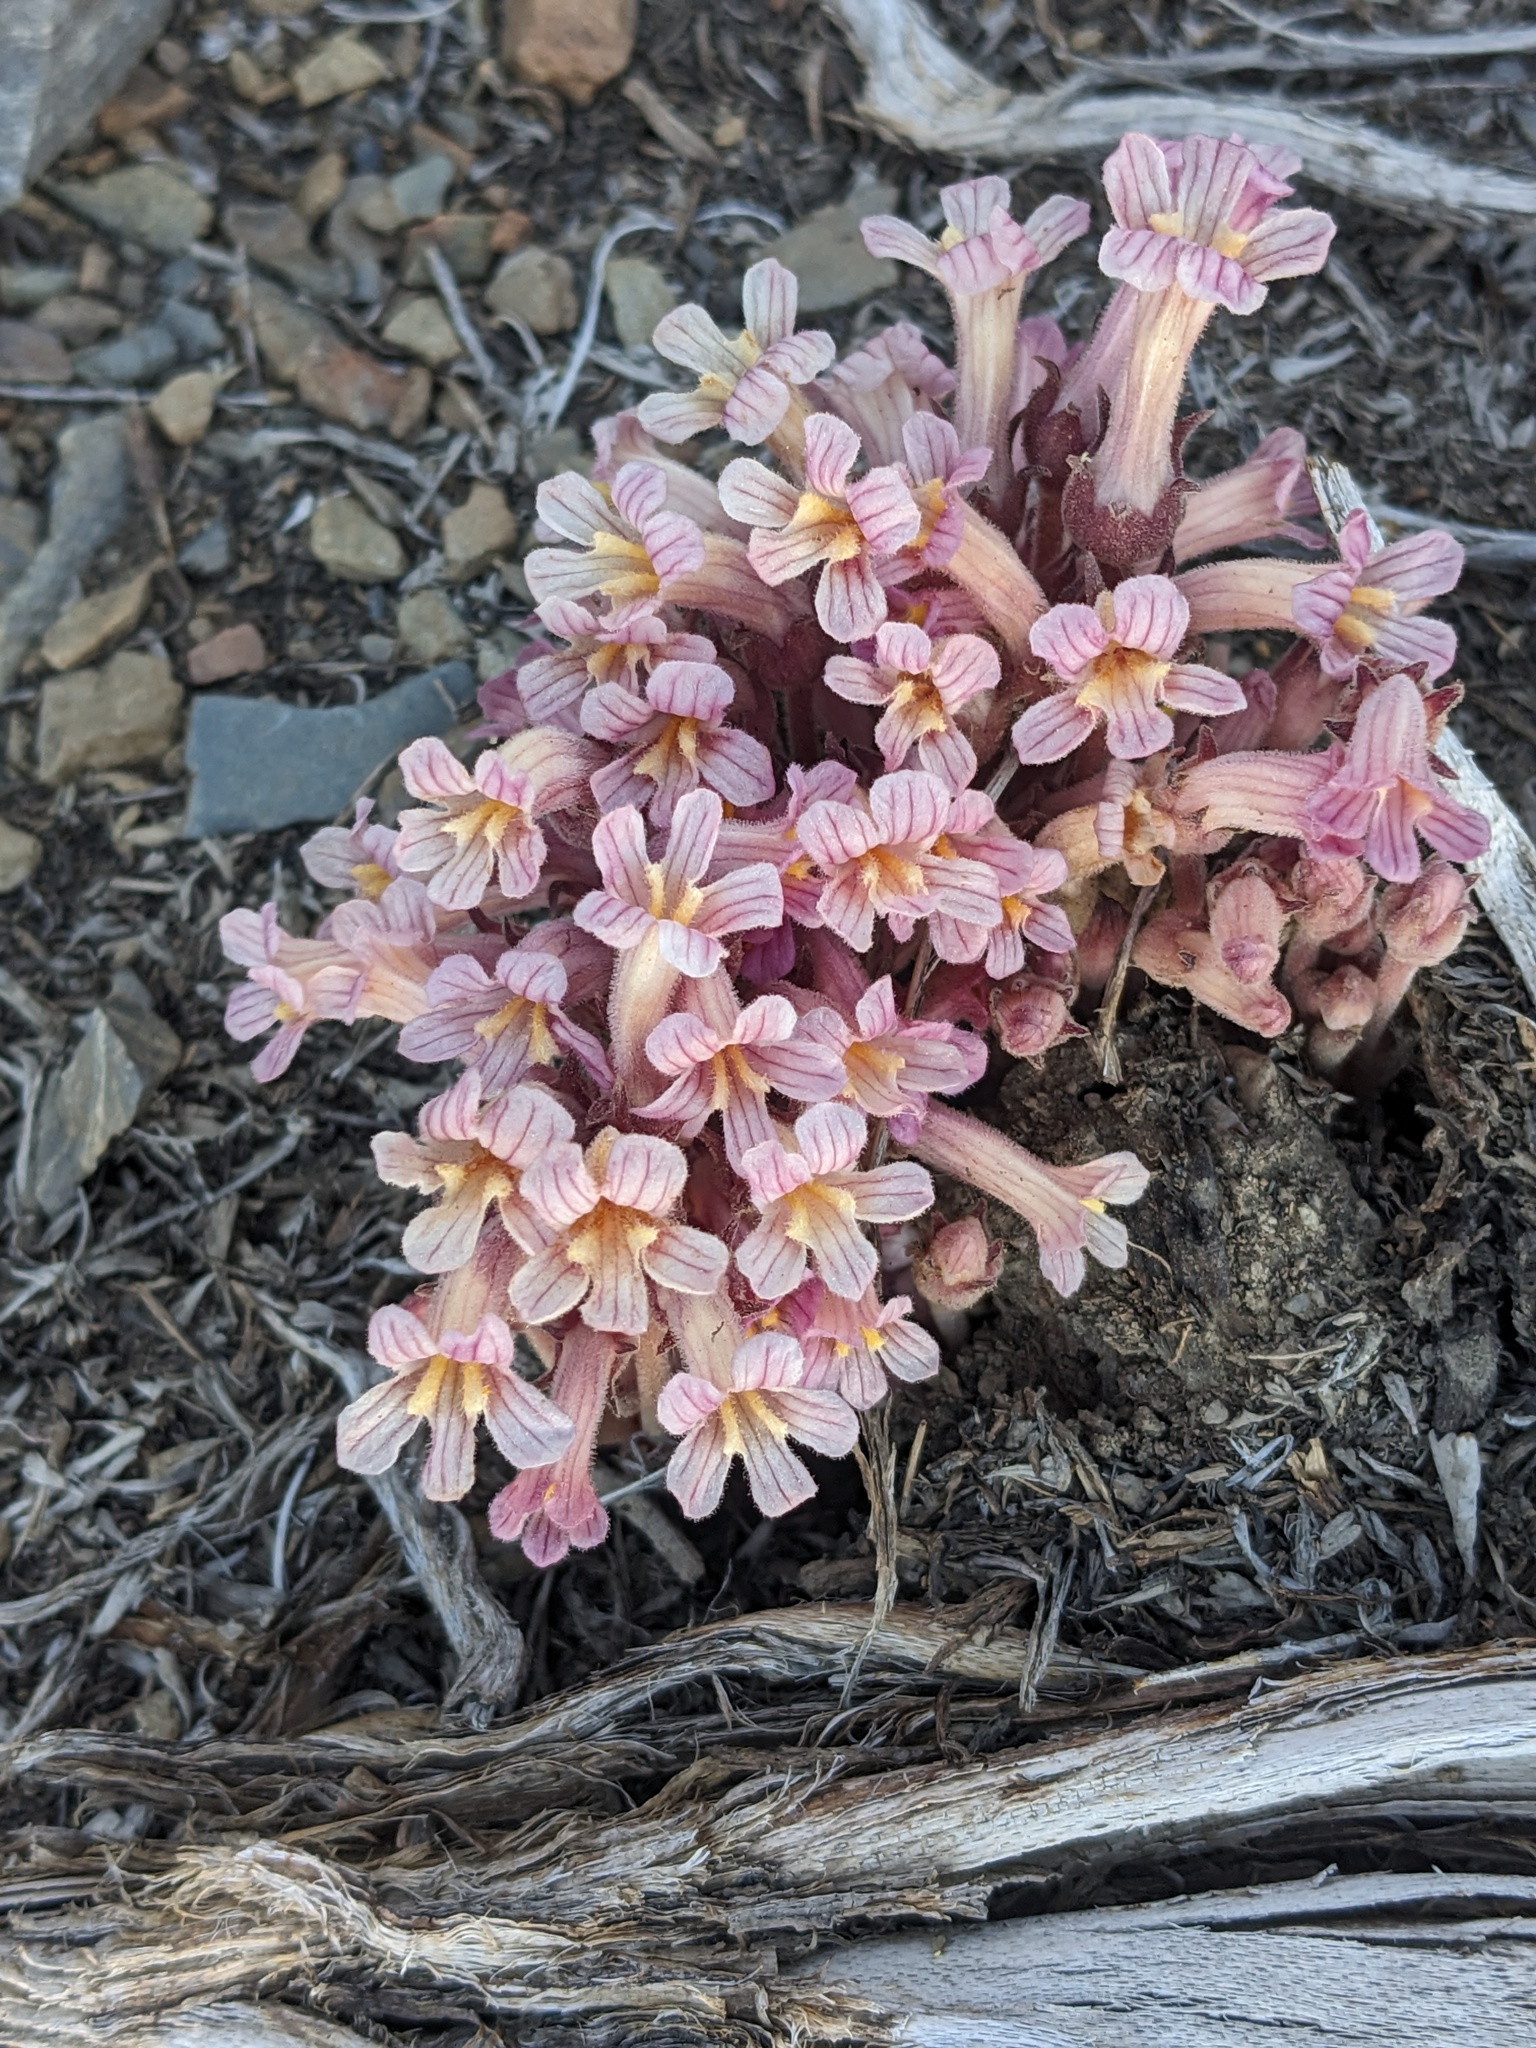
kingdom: Plantae
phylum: Tracheophyta
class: Magnoliopsida
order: Lamiales
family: Orobanchaceae
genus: Aphyllon
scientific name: Aphyllon fasciculatum
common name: Clustered broomrape
